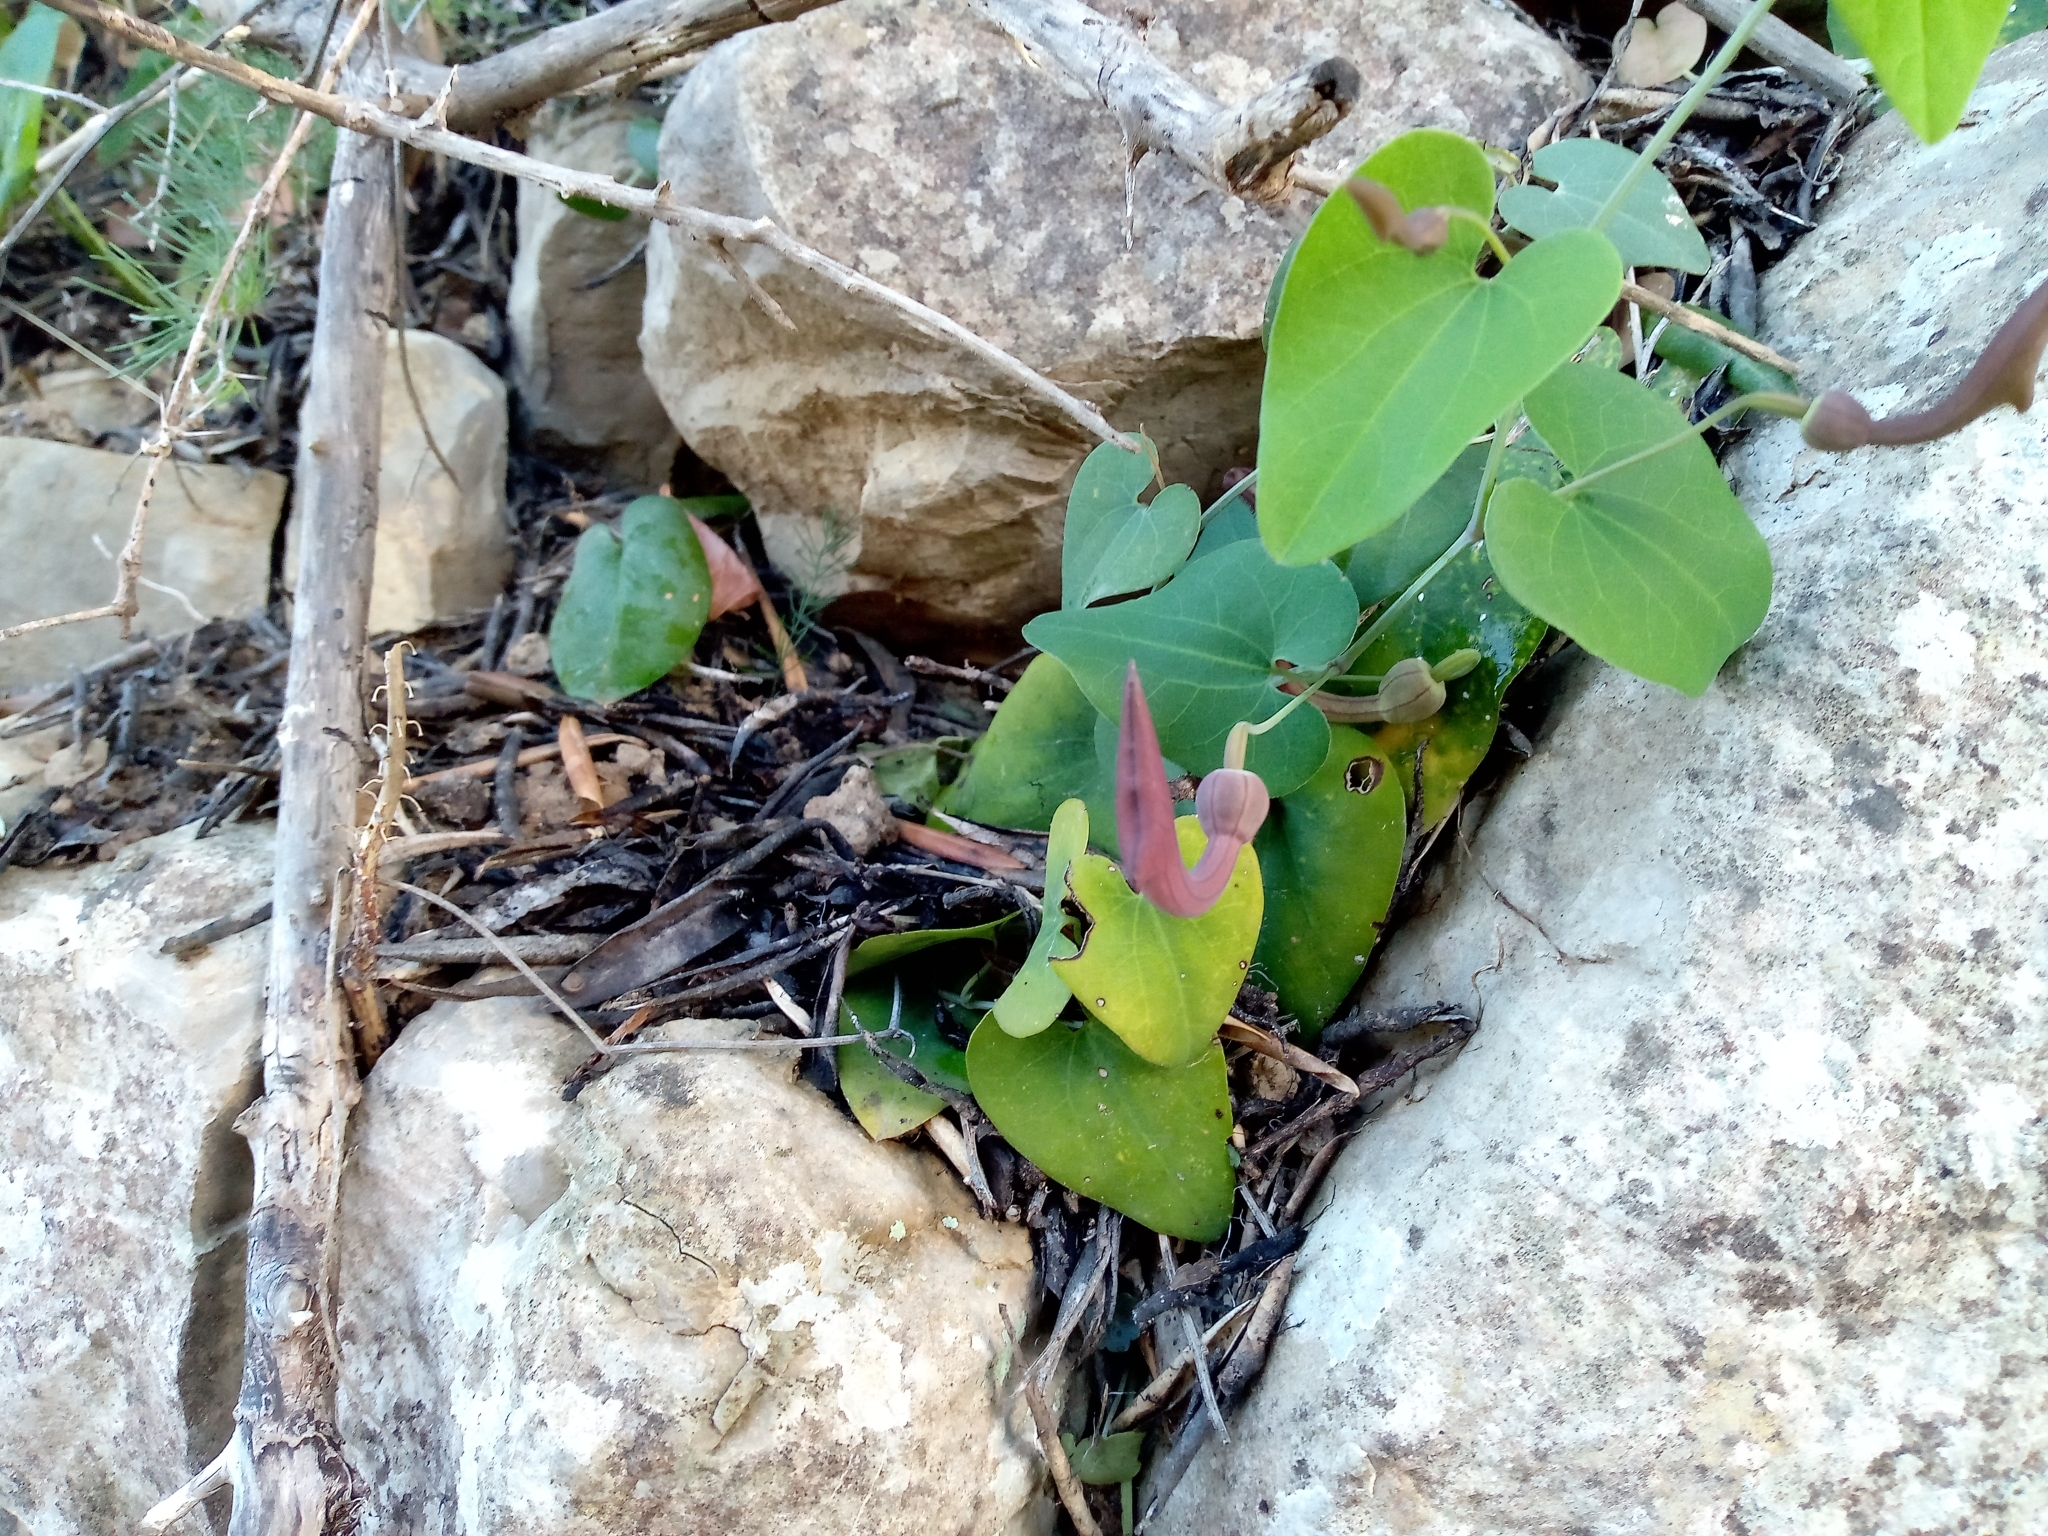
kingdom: Plantae
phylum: Tracheophyta
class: Magnoliopsida
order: Piperales
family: Aristolochiaceae
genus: Aristolochia
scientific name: Aristolochia baetica
